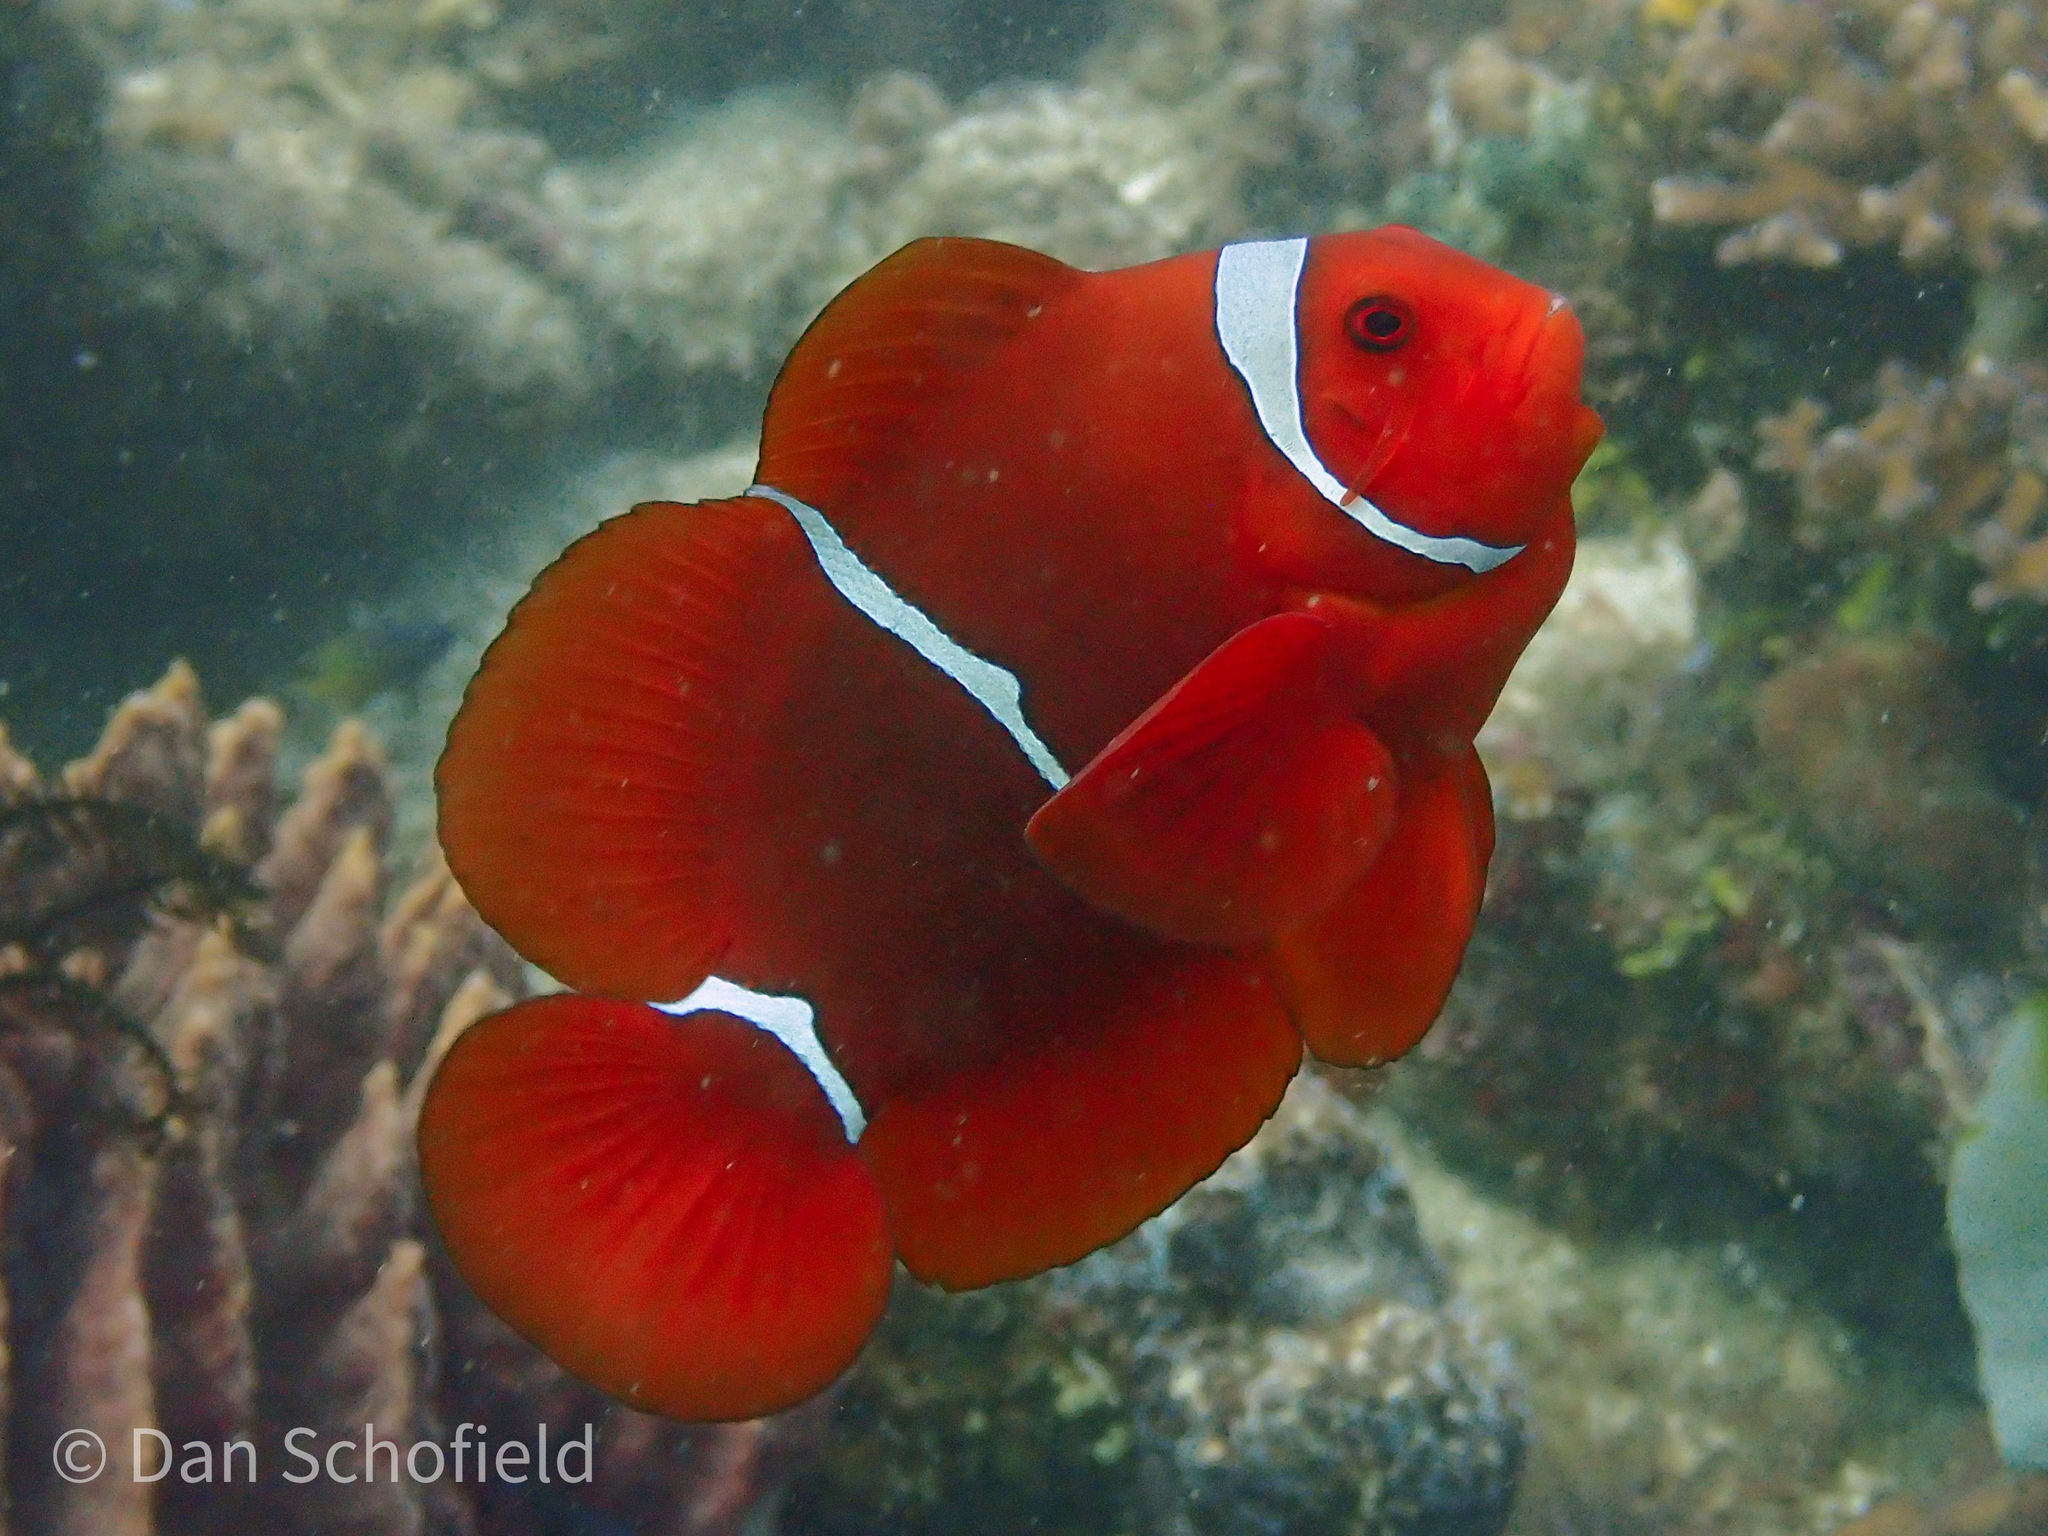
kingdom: Animalia
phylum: Chordata
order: Perciformes
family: Pomacentridae
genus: Premnas
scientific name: Premnas biaculeatus
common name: Spinecheek anemonefish
